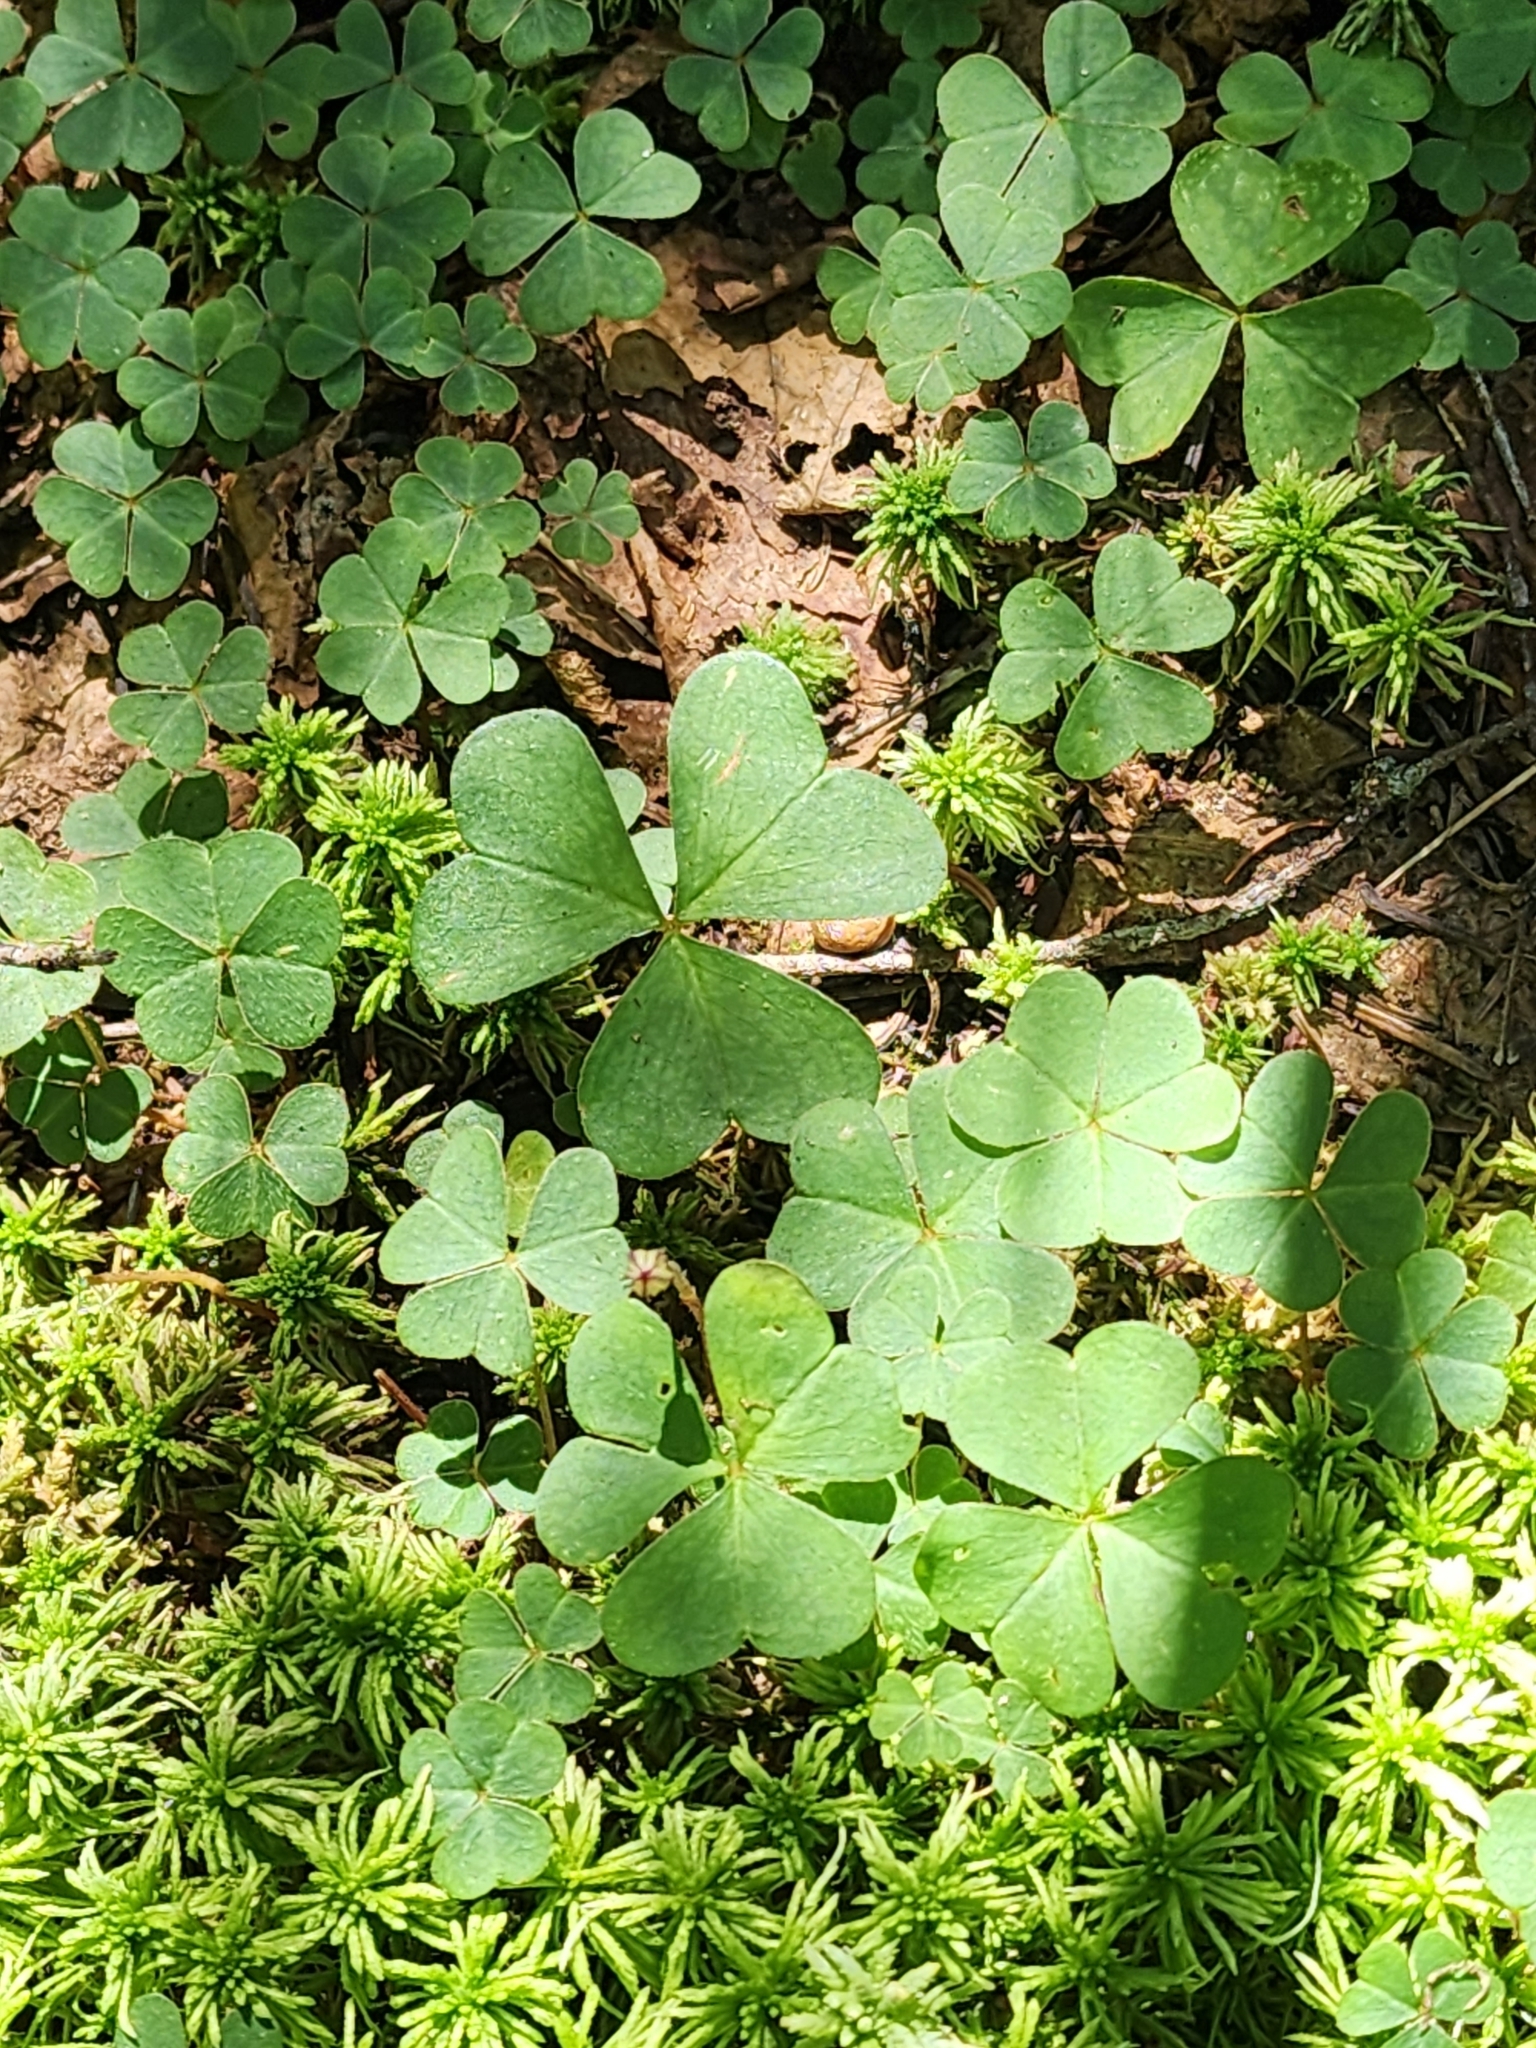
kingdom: Plantae
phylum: Tracheophyta
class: Magnoliopsida
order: Oxalidales
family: Oxalidaceae
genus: Oxalis
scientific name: Oxalis montana
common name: American wood-sorrel
